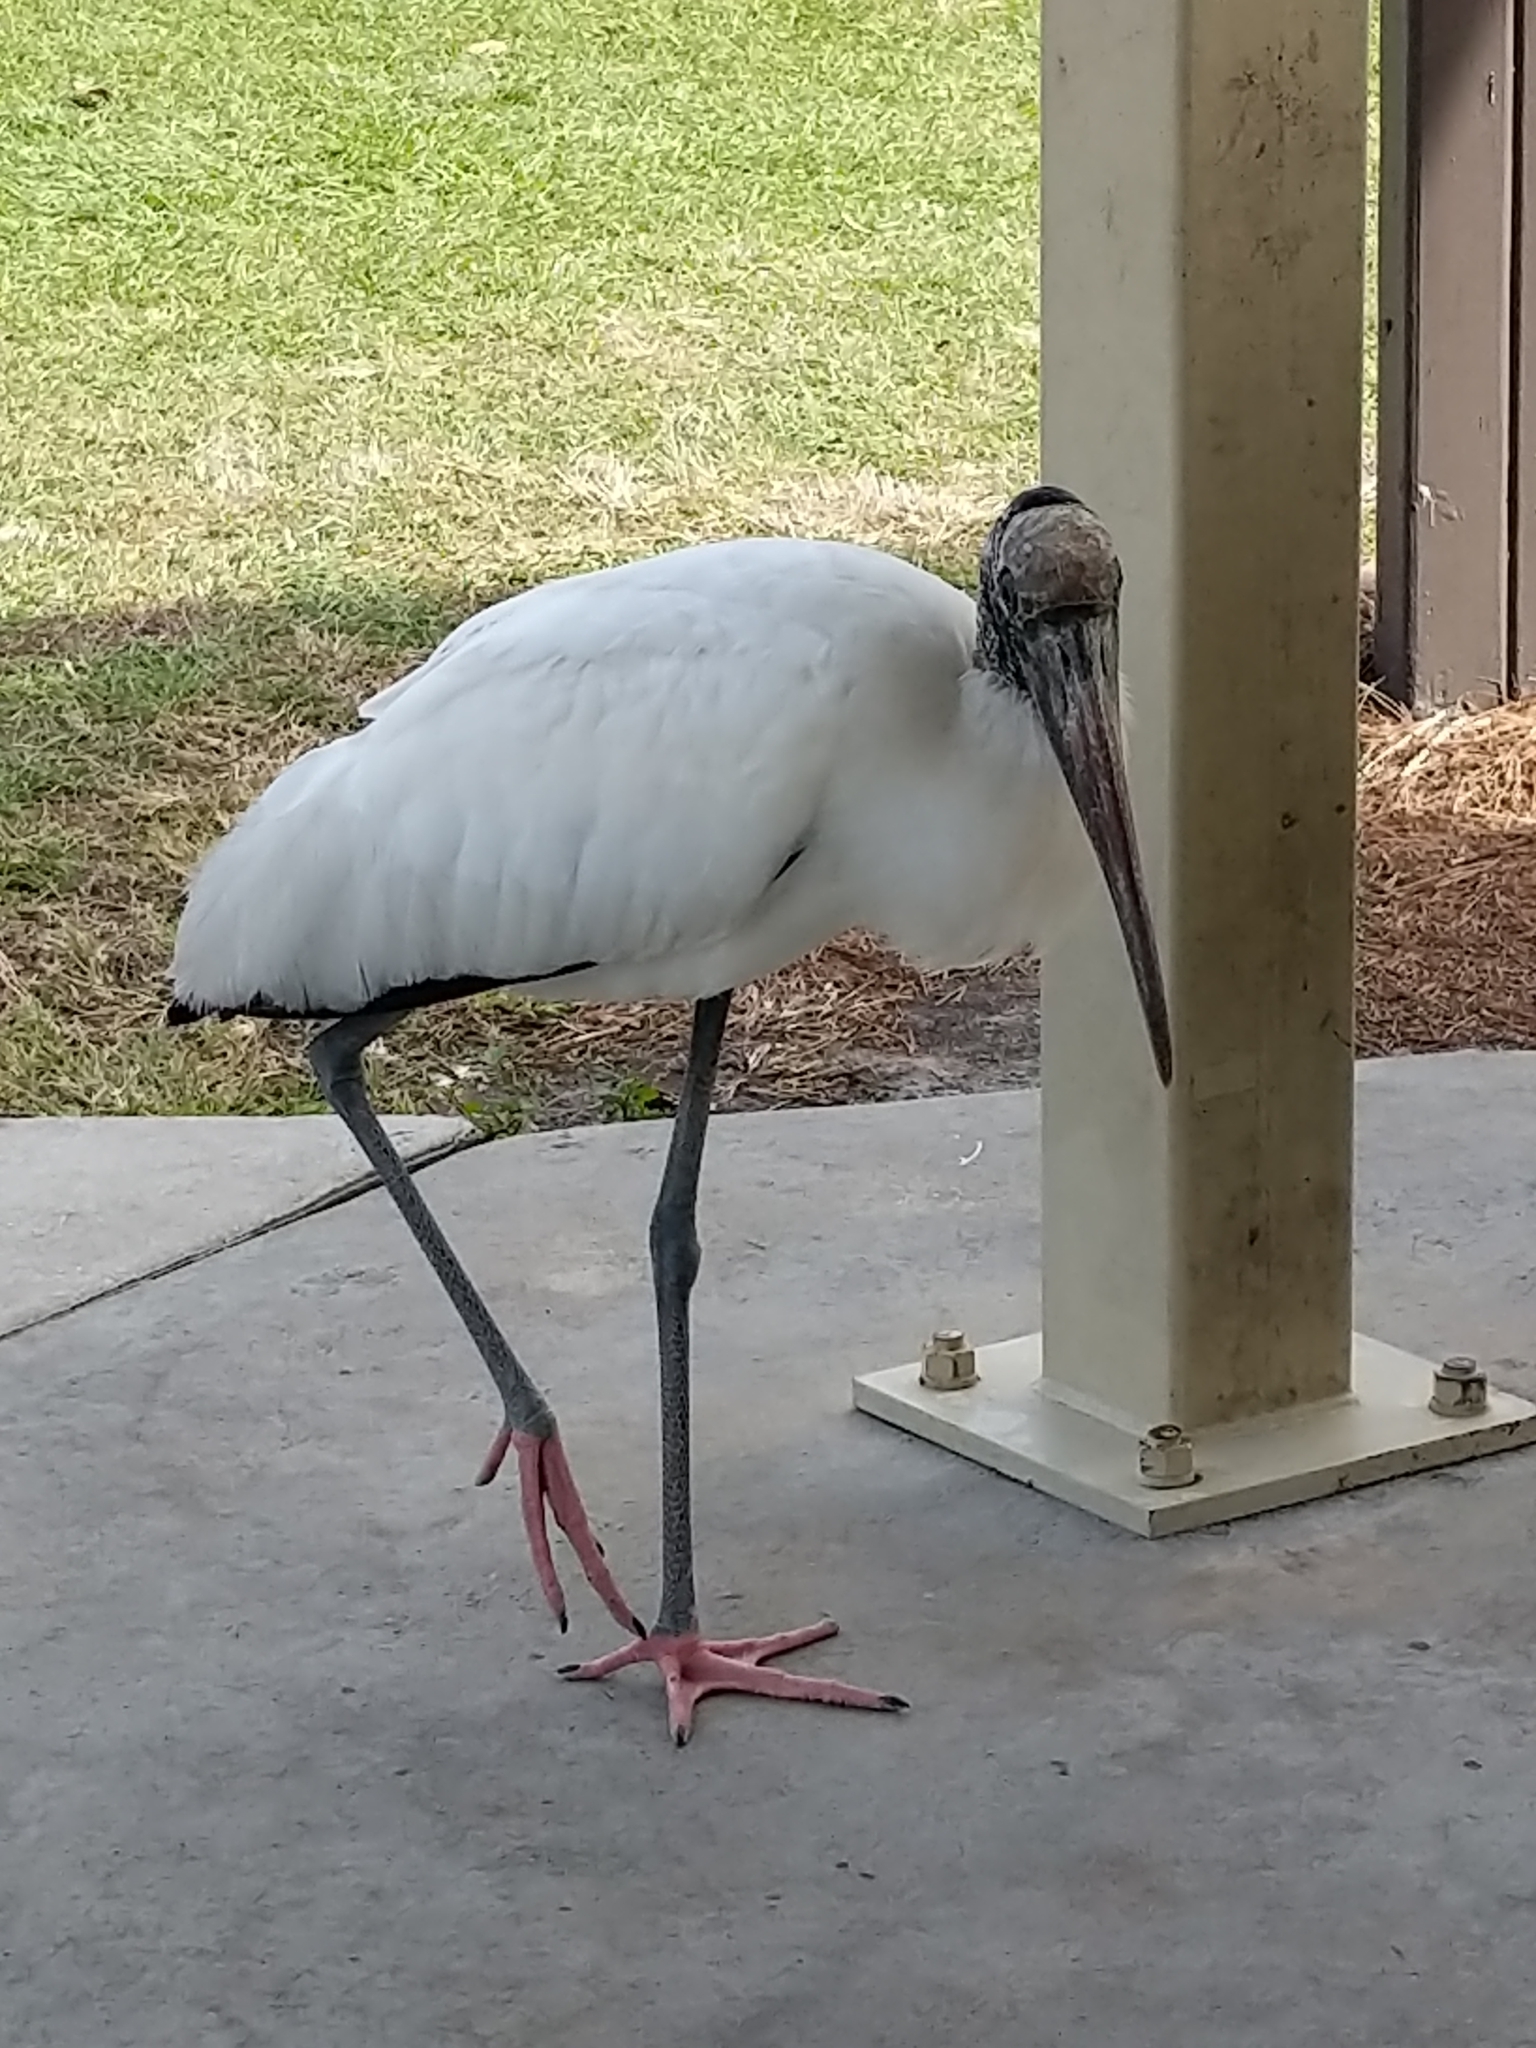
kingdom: Animalia
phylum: Chordata
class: Aves
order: Ciconiiformes
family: Ciconiidae
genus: Mycteria
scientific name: Mycteria americana
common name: Wood stork
